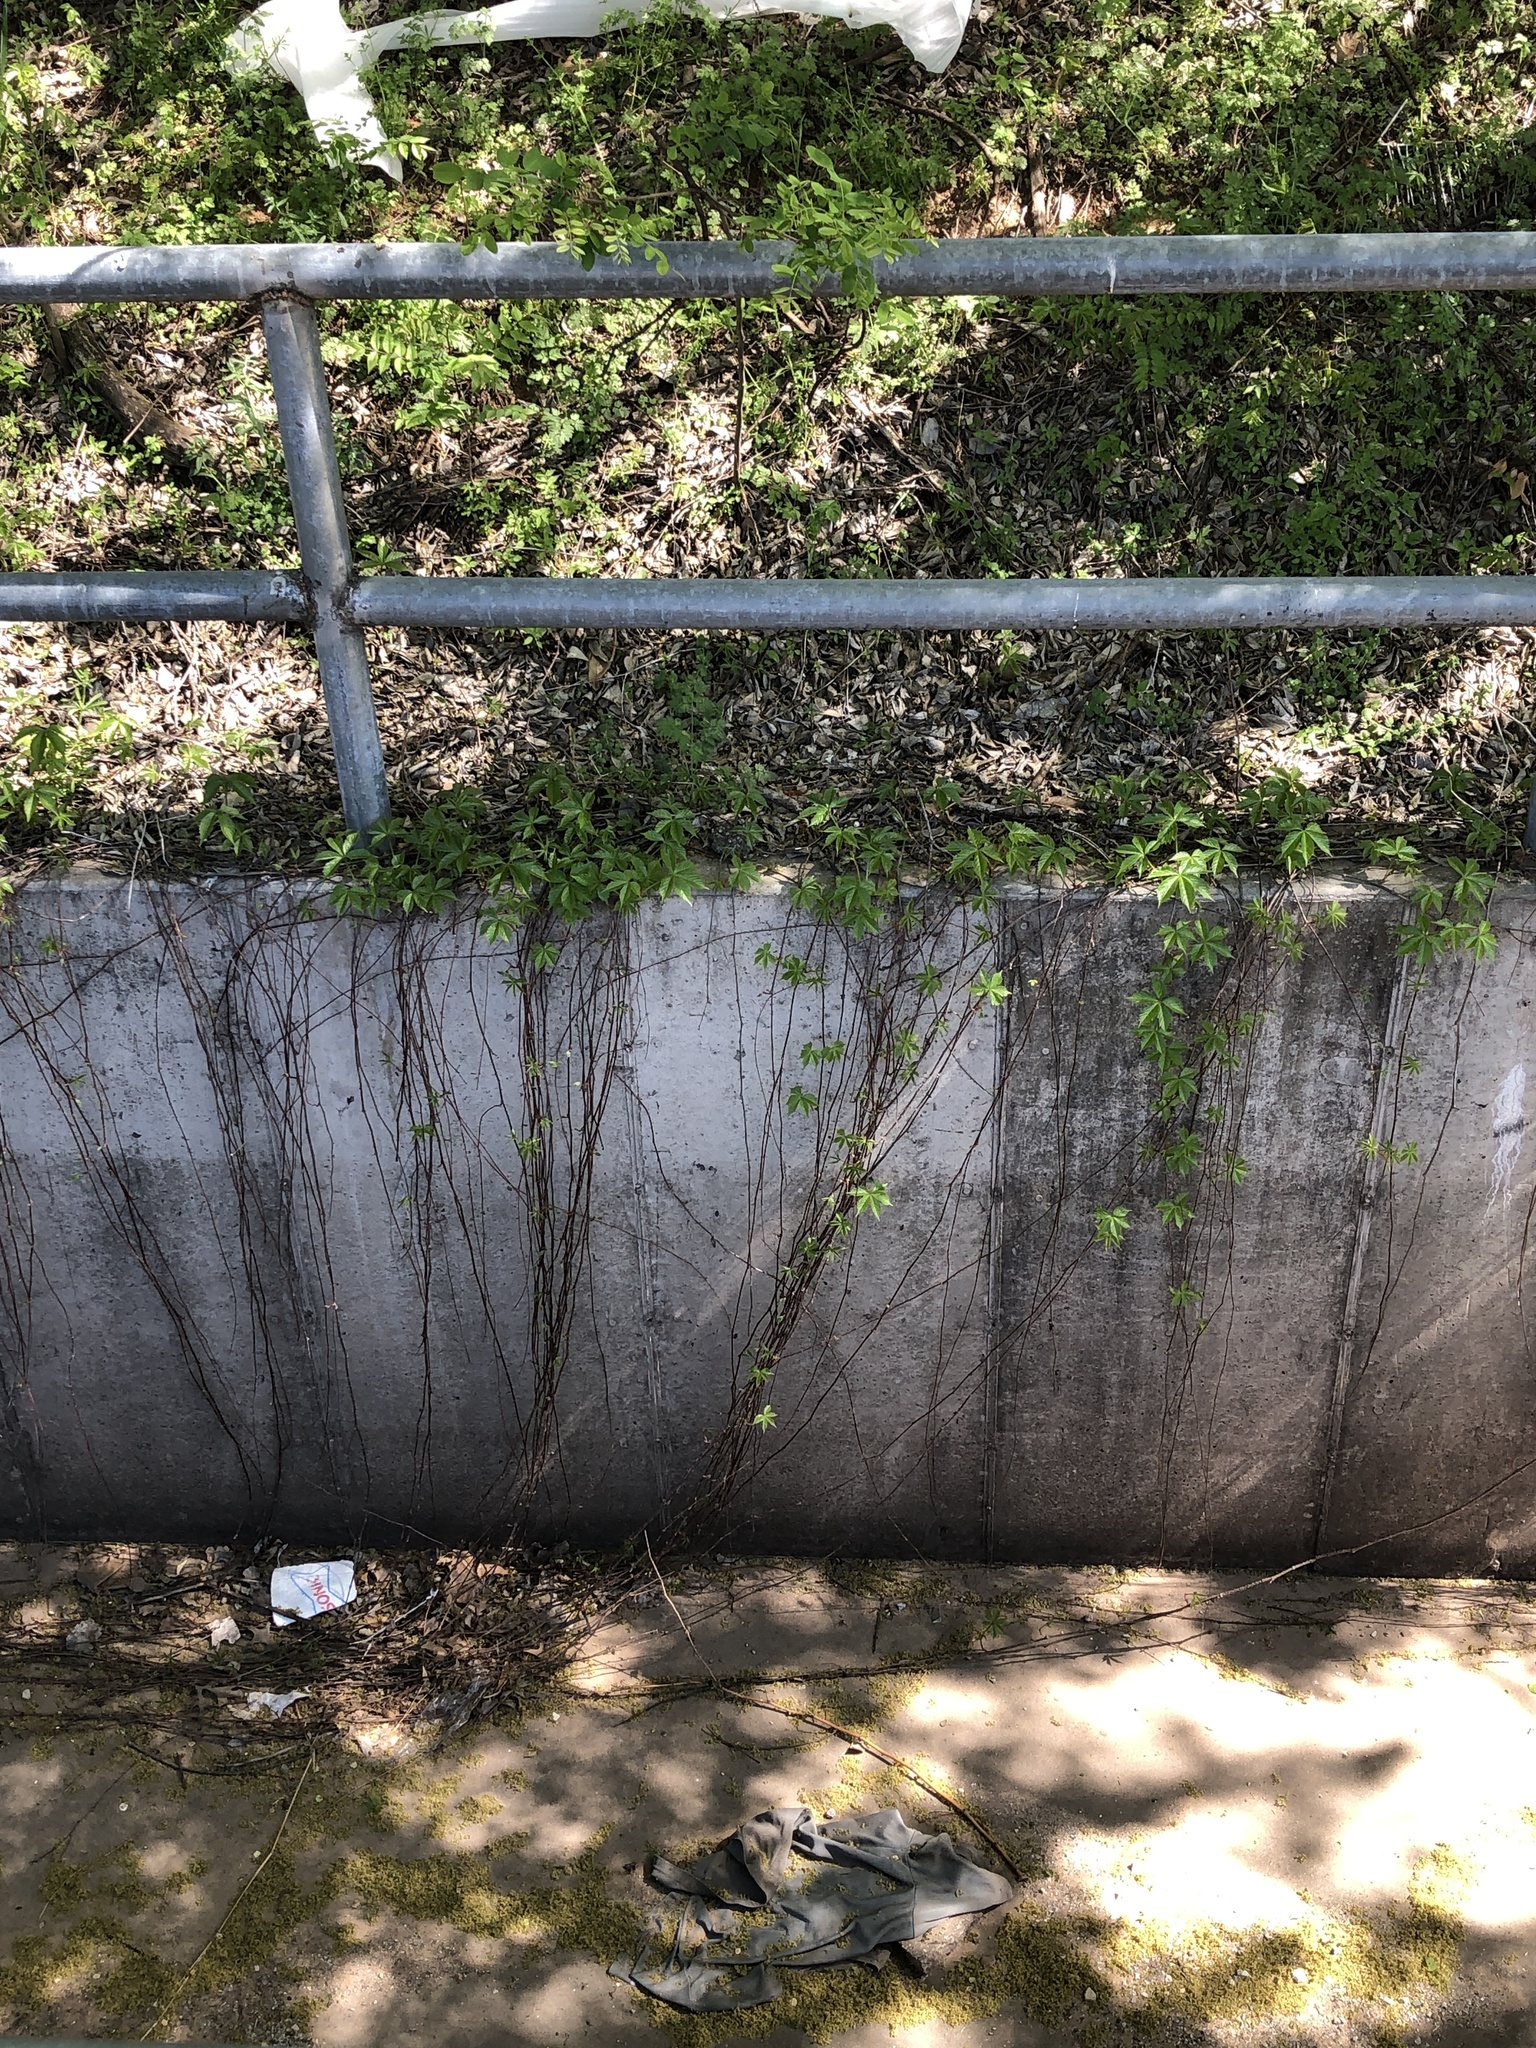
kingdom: Plantae
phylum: Tracheophyta
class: Magnoliopsida
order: Vitales
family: Vitaceae
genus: Parthenocissus
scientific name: Parthenocissus quinquefolia
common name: Virginia-creeper
